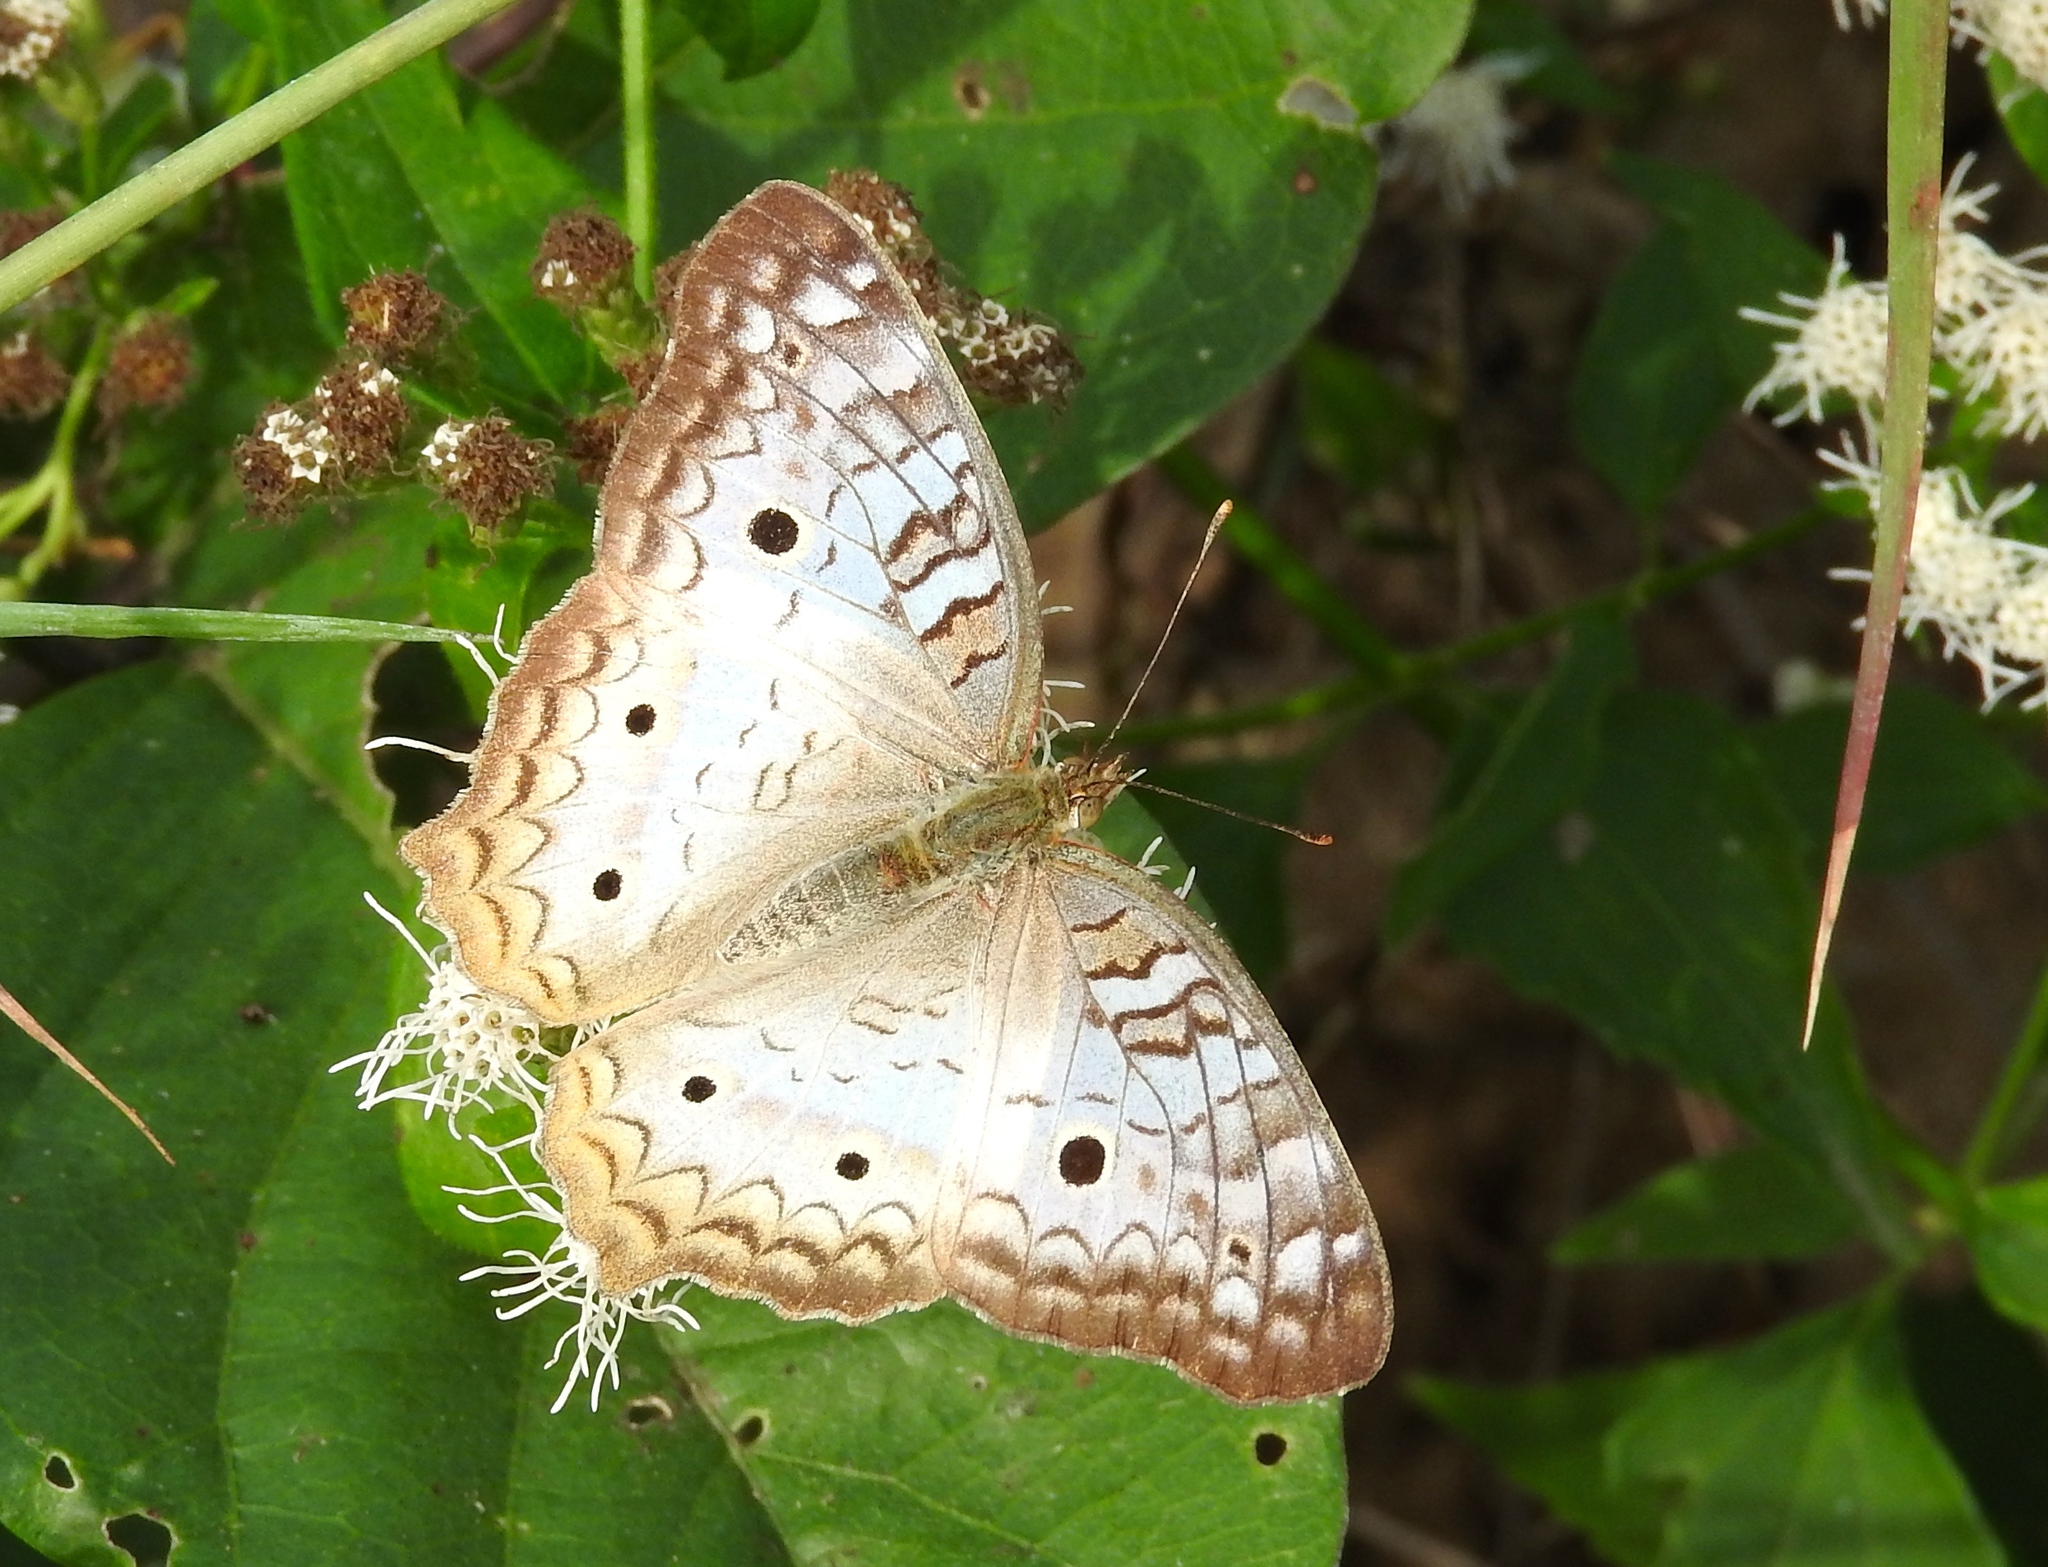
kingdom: Animalia
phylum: Arthropoda
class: Insecta
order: Lepidoptera
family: Nymphalidae
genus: Anartia
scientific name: Anartia jatrophae
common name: White peacock
